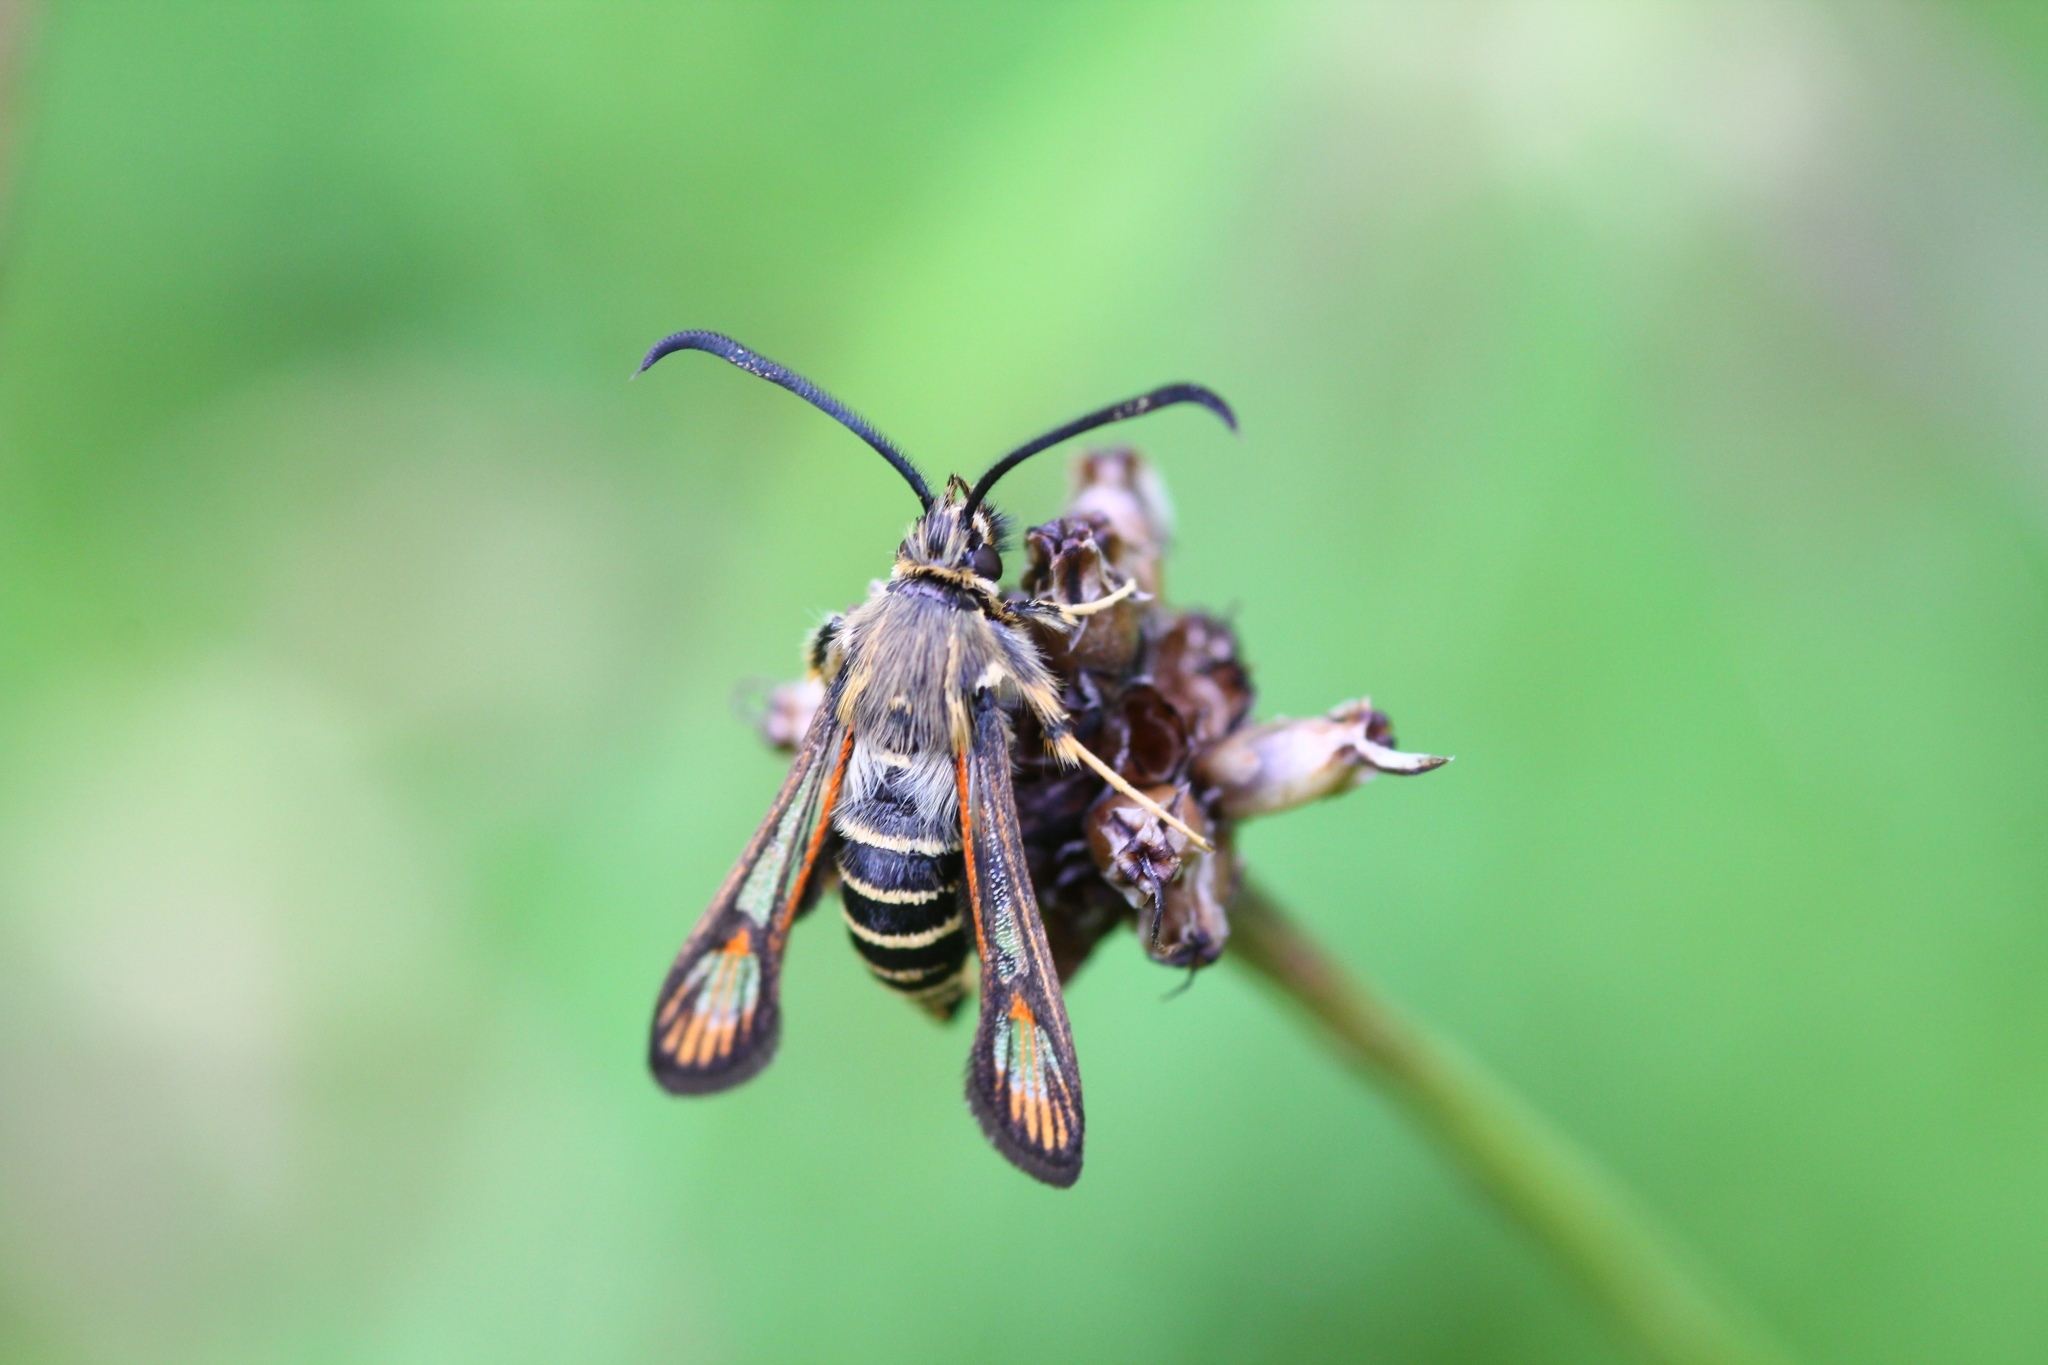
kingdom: Animalia
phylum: Arthropoda
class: Insecta
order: Lepidoptera
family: Sesiidae
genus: Bembecia
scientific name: Bembecia ichneumoniformis
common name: Six-belted clearwing
